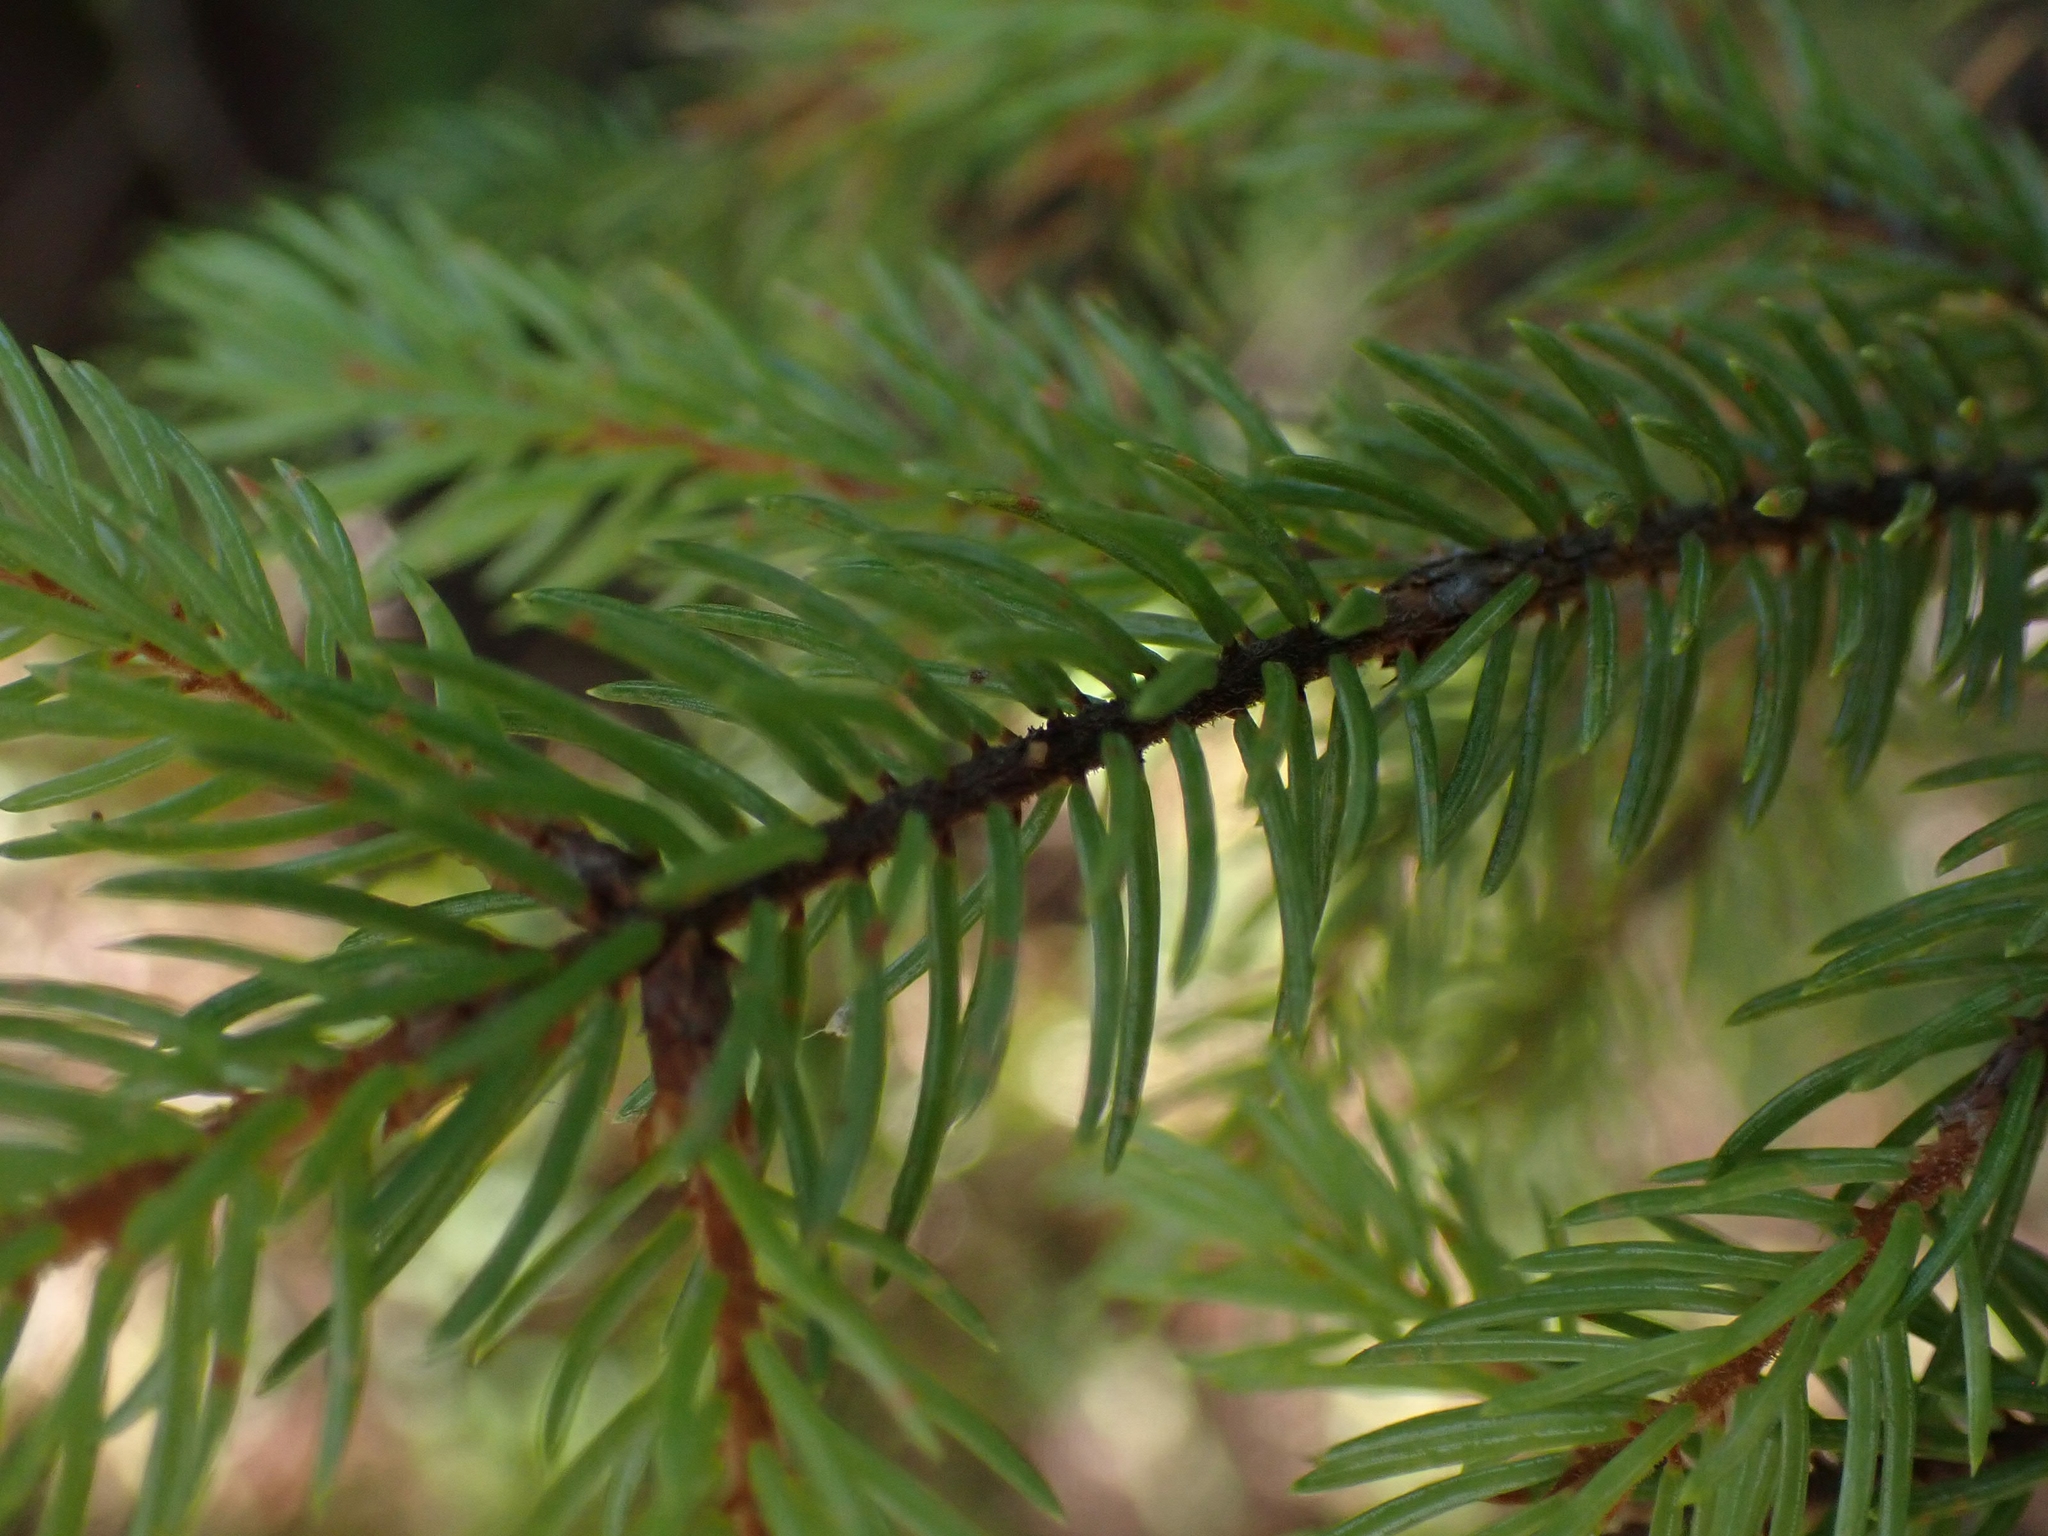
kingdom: Plantae
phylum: Tracheophyta
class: Pinopsida
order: Pinales
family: Pinaceae
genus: Picea
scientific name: Picea mariana
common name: Black spruce
